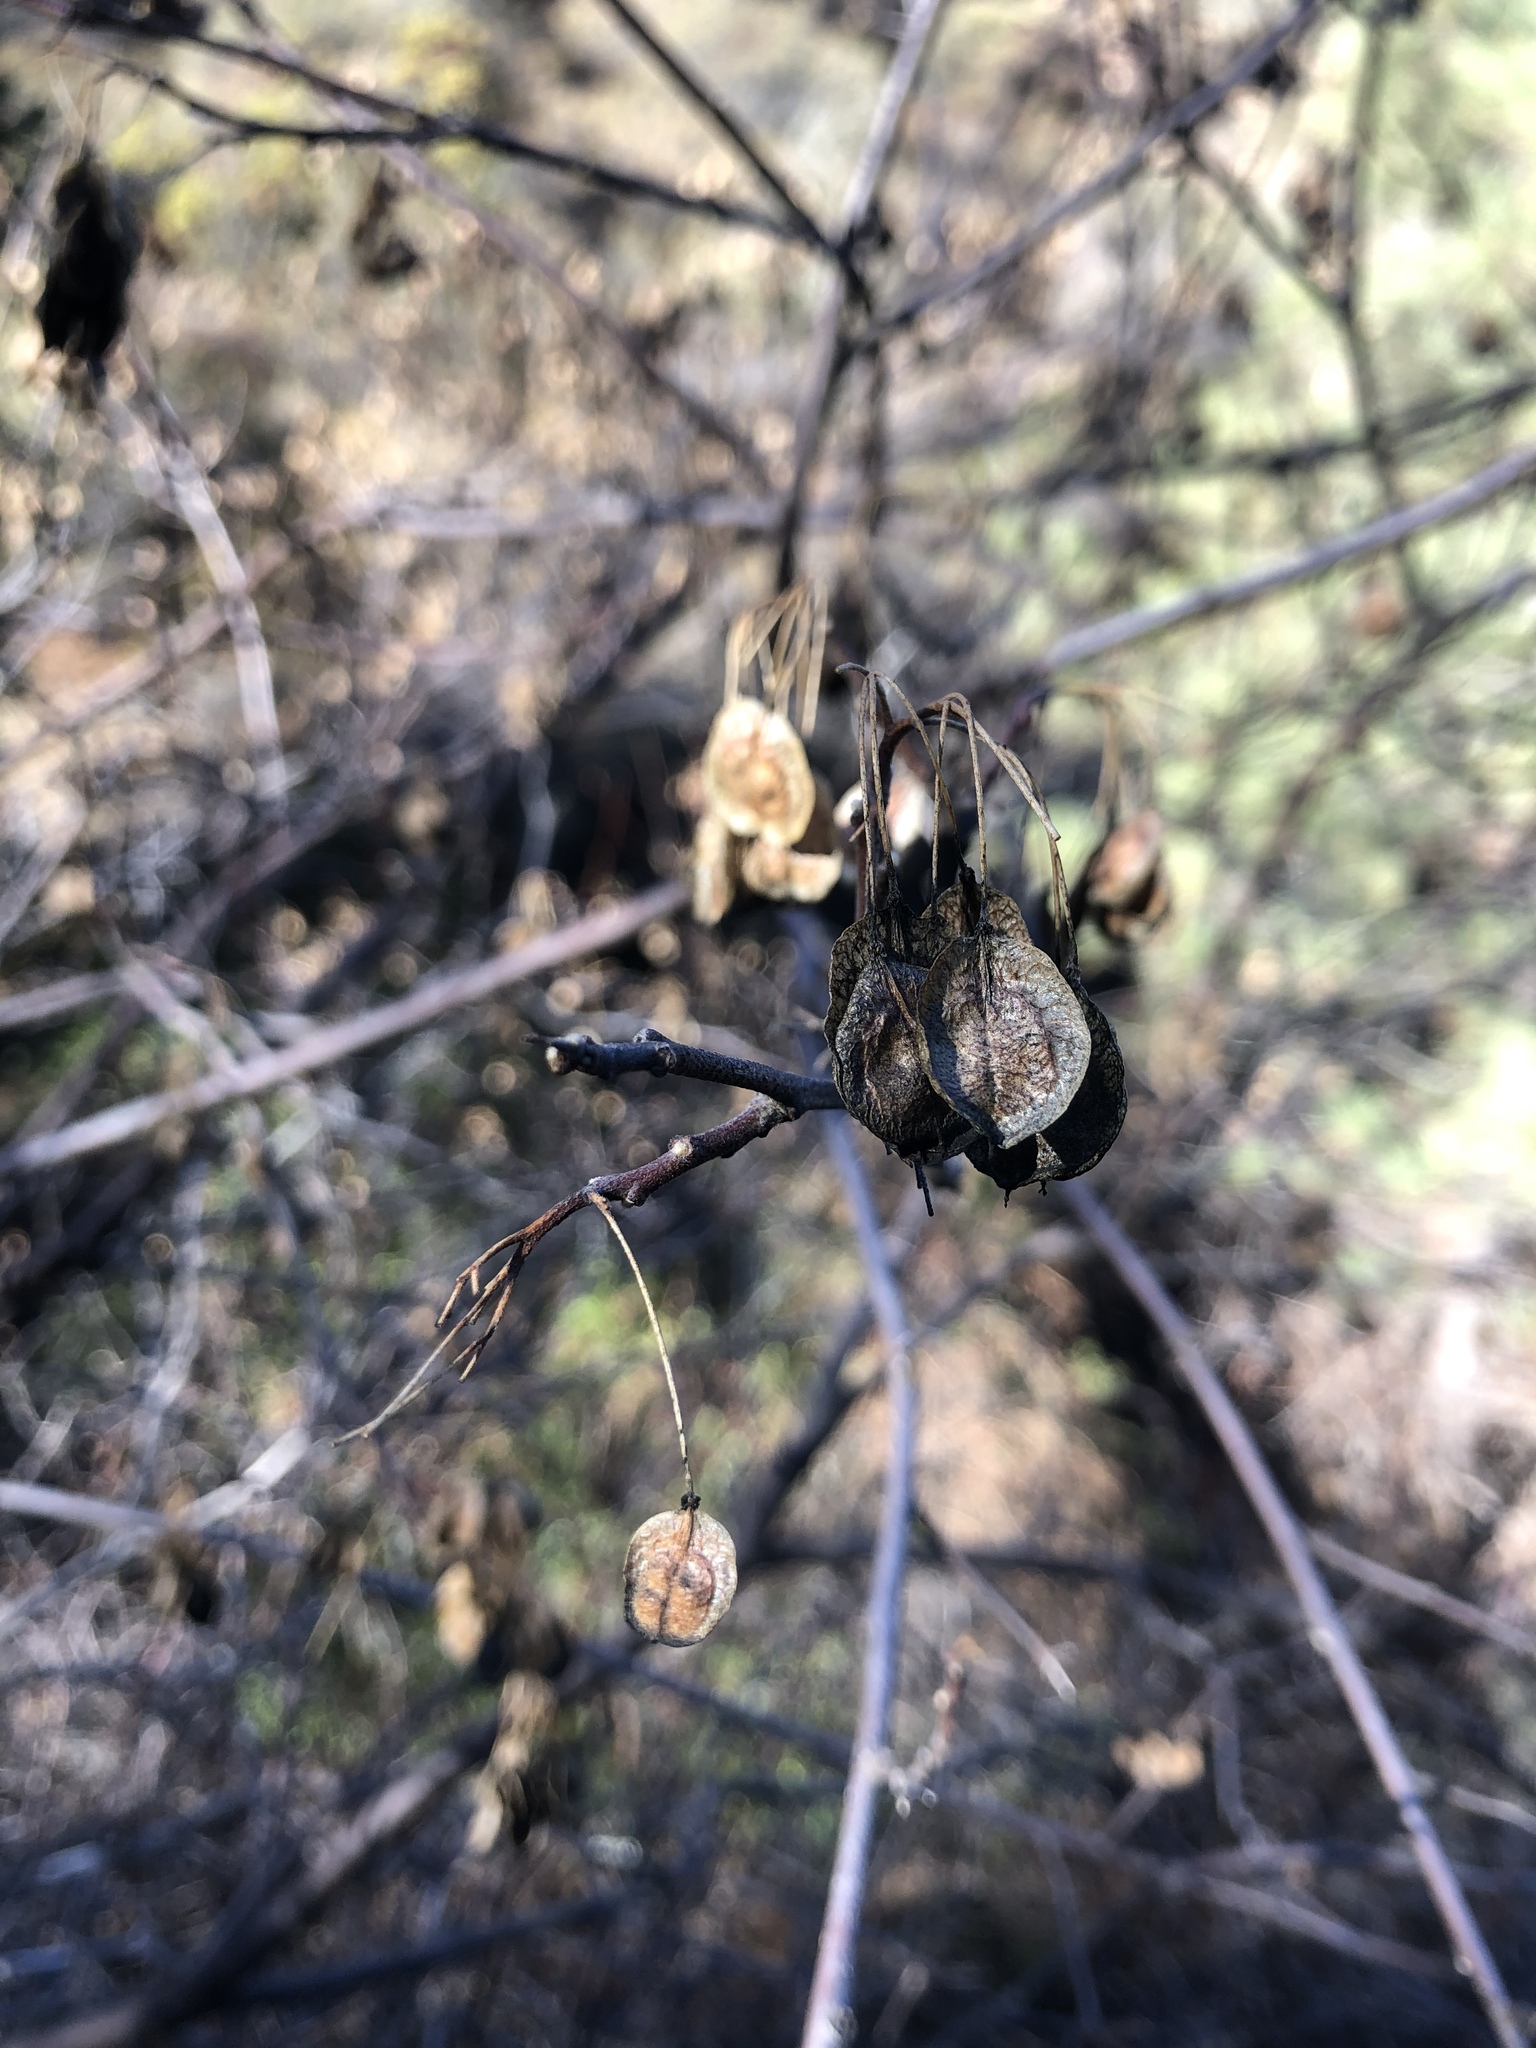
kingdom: Plantae
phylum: Tracheophyta
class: Magnoliopsida
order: Sapindales
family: Rutaceae
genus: Ptelea
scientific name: Ptelea crenulata
